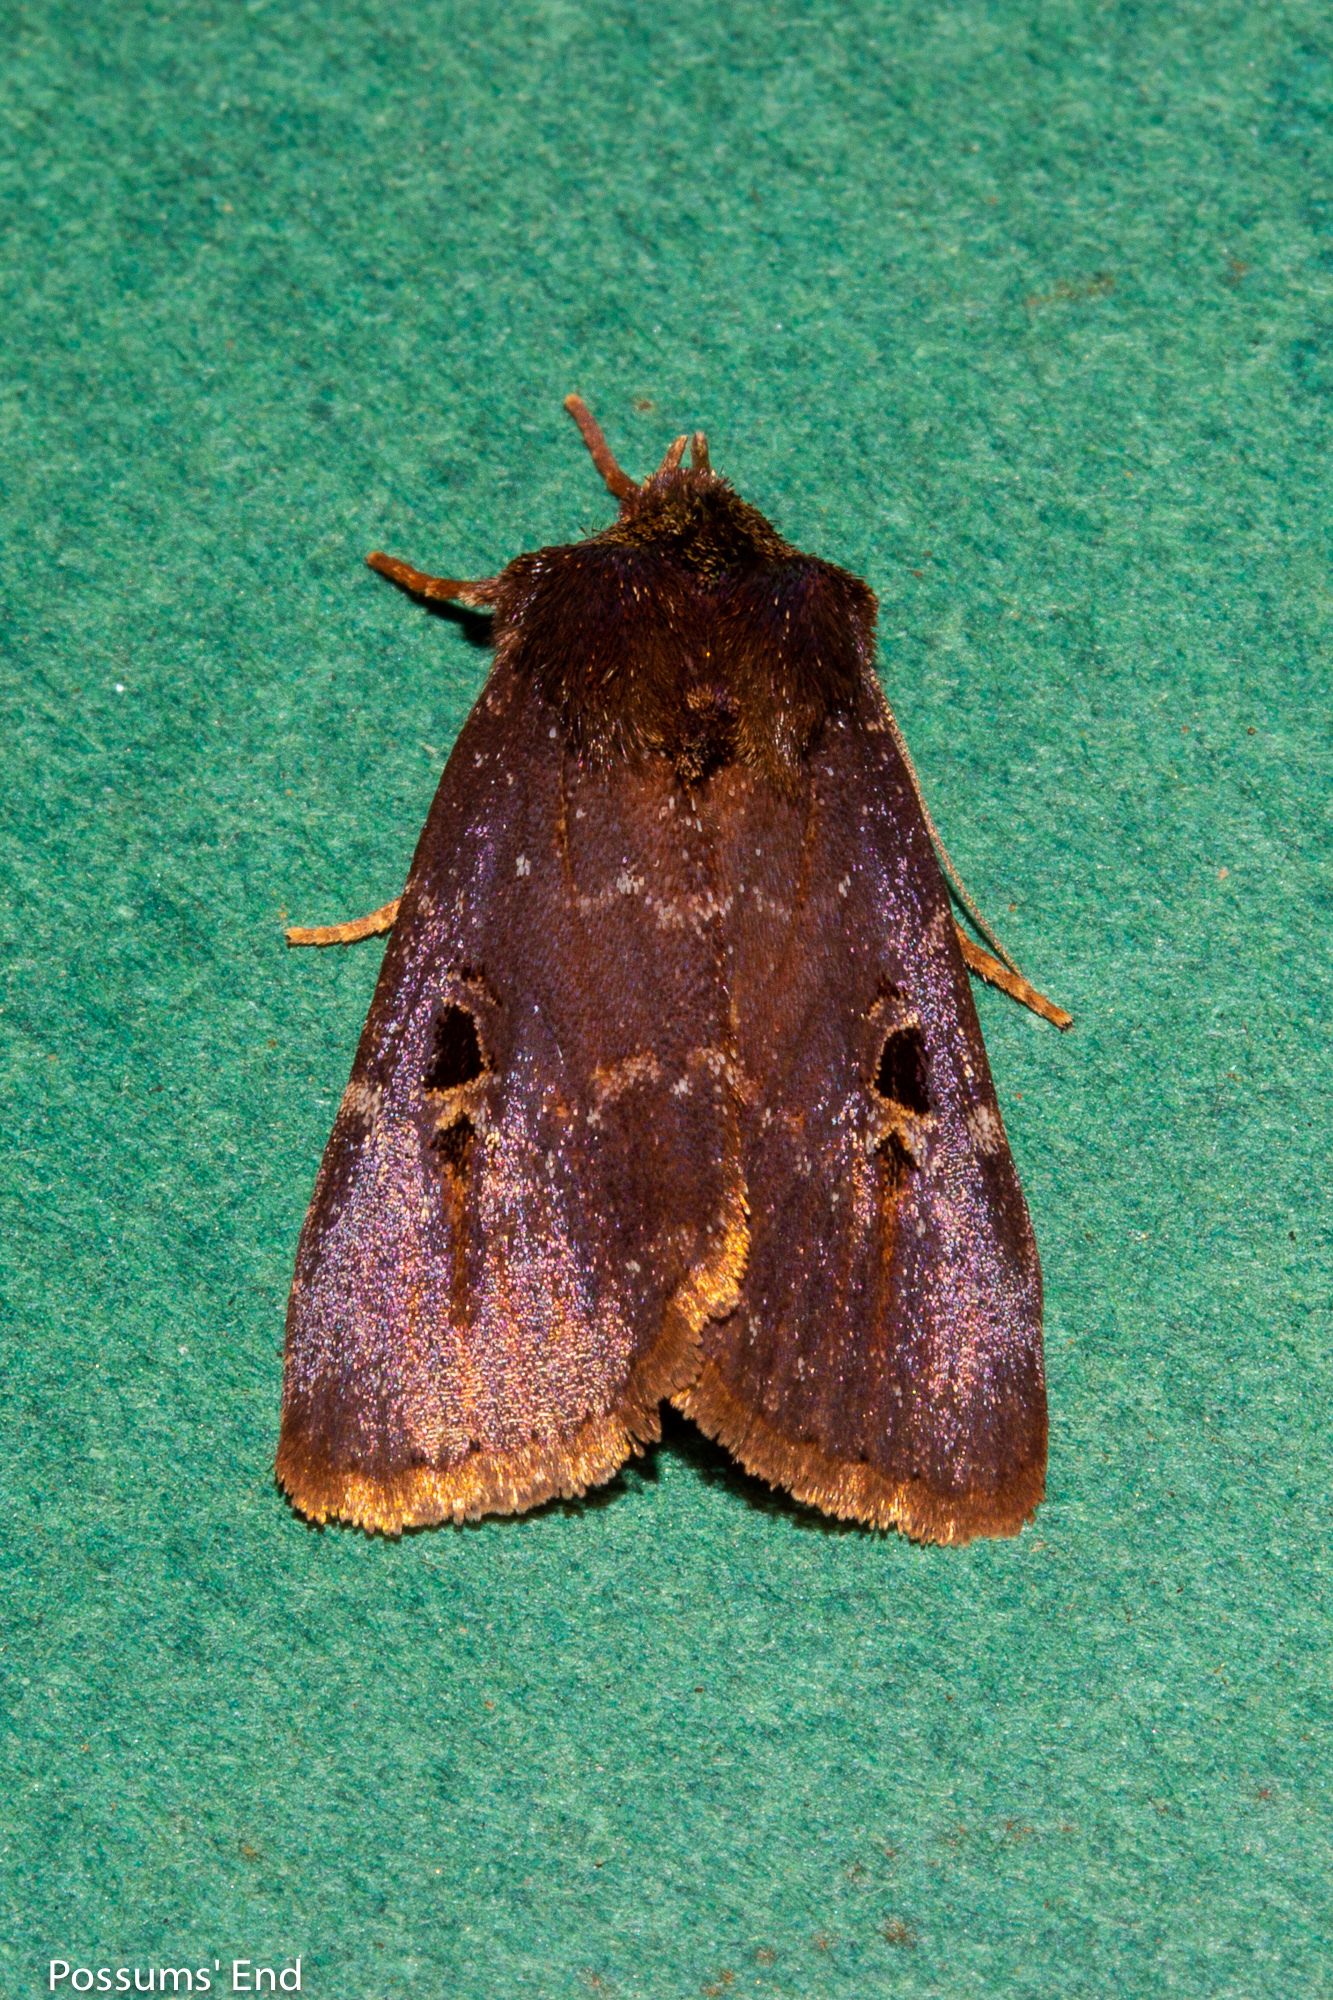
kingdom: Animalia
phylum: Arthropoda
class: Insecta
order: Lepidoptera
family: Noctuidae
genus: Austramathes
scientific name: Austramathes purpurea
